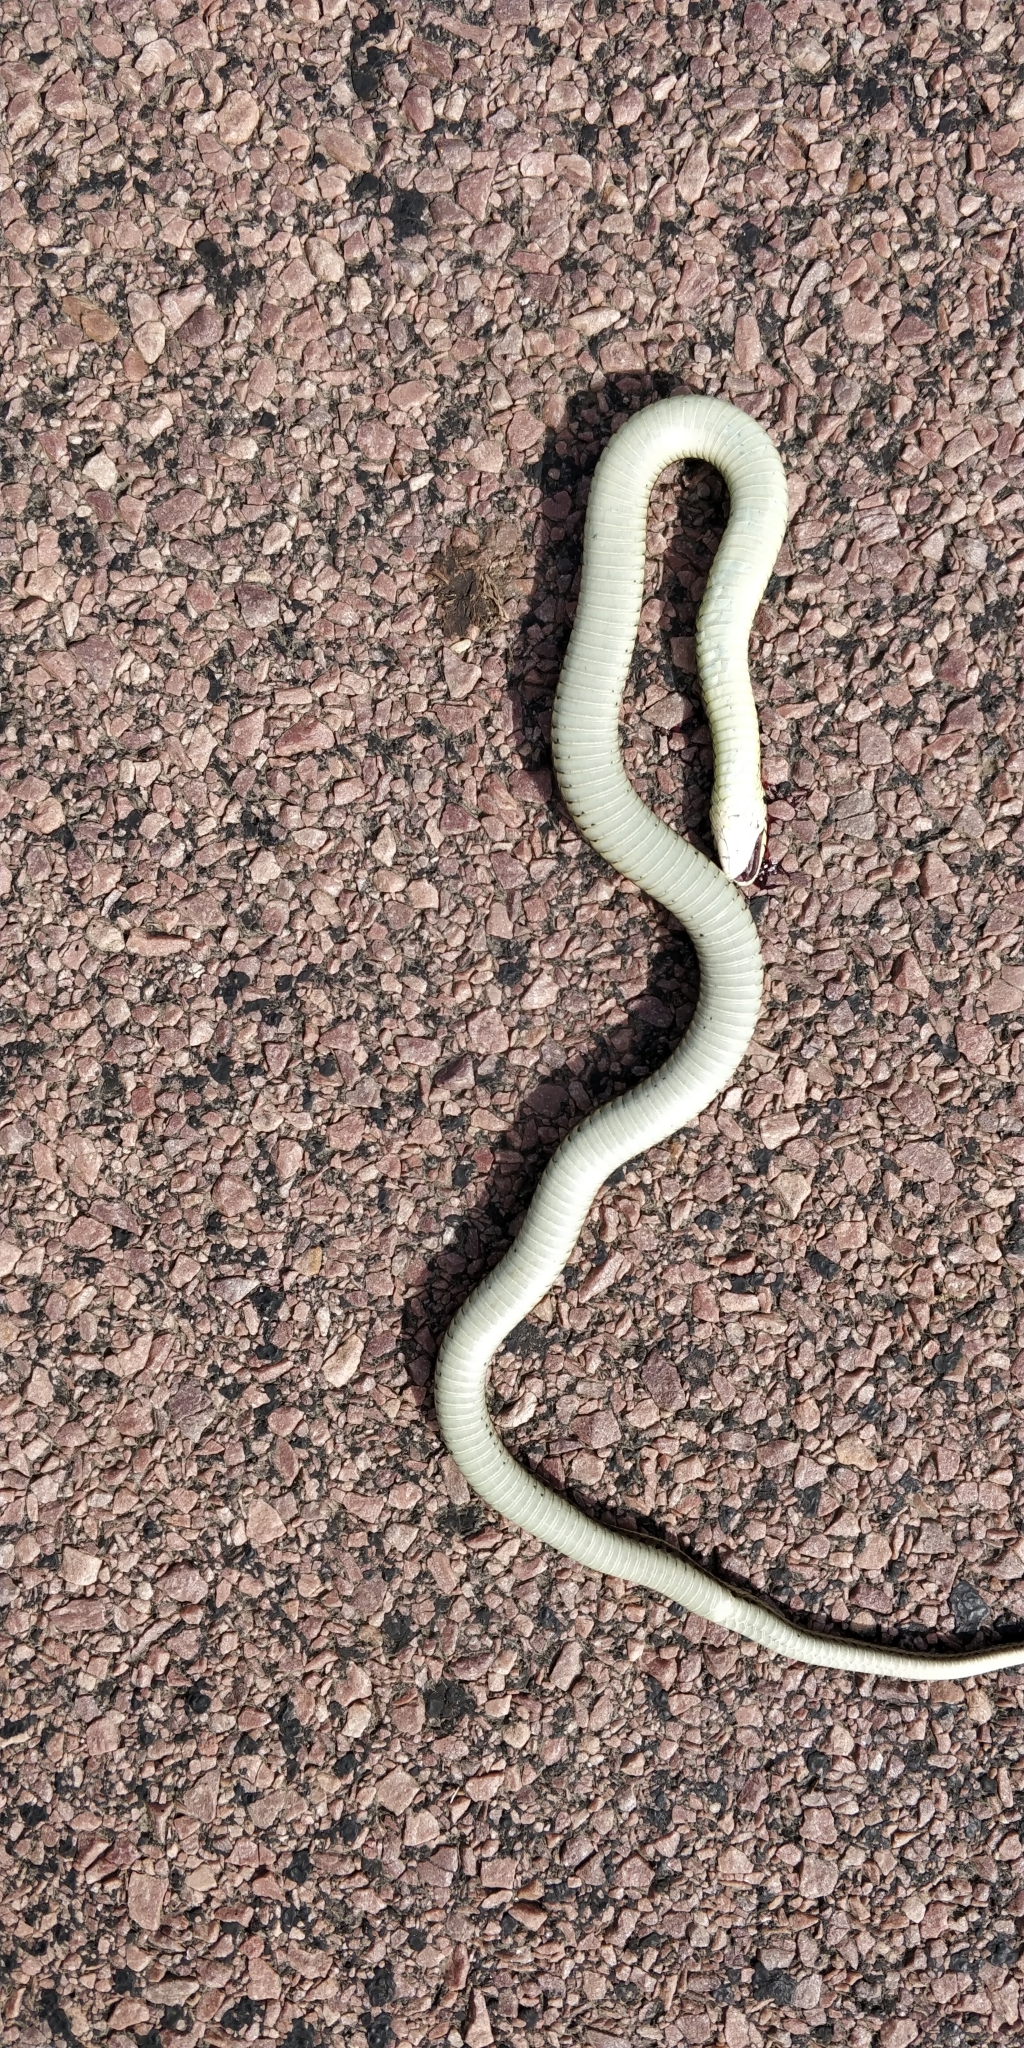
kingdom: Animalia
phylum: Chordata
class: Squamata
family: Colubridae
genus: Thamnophis
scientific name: Thamnophis radix
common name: Plains garter snake
